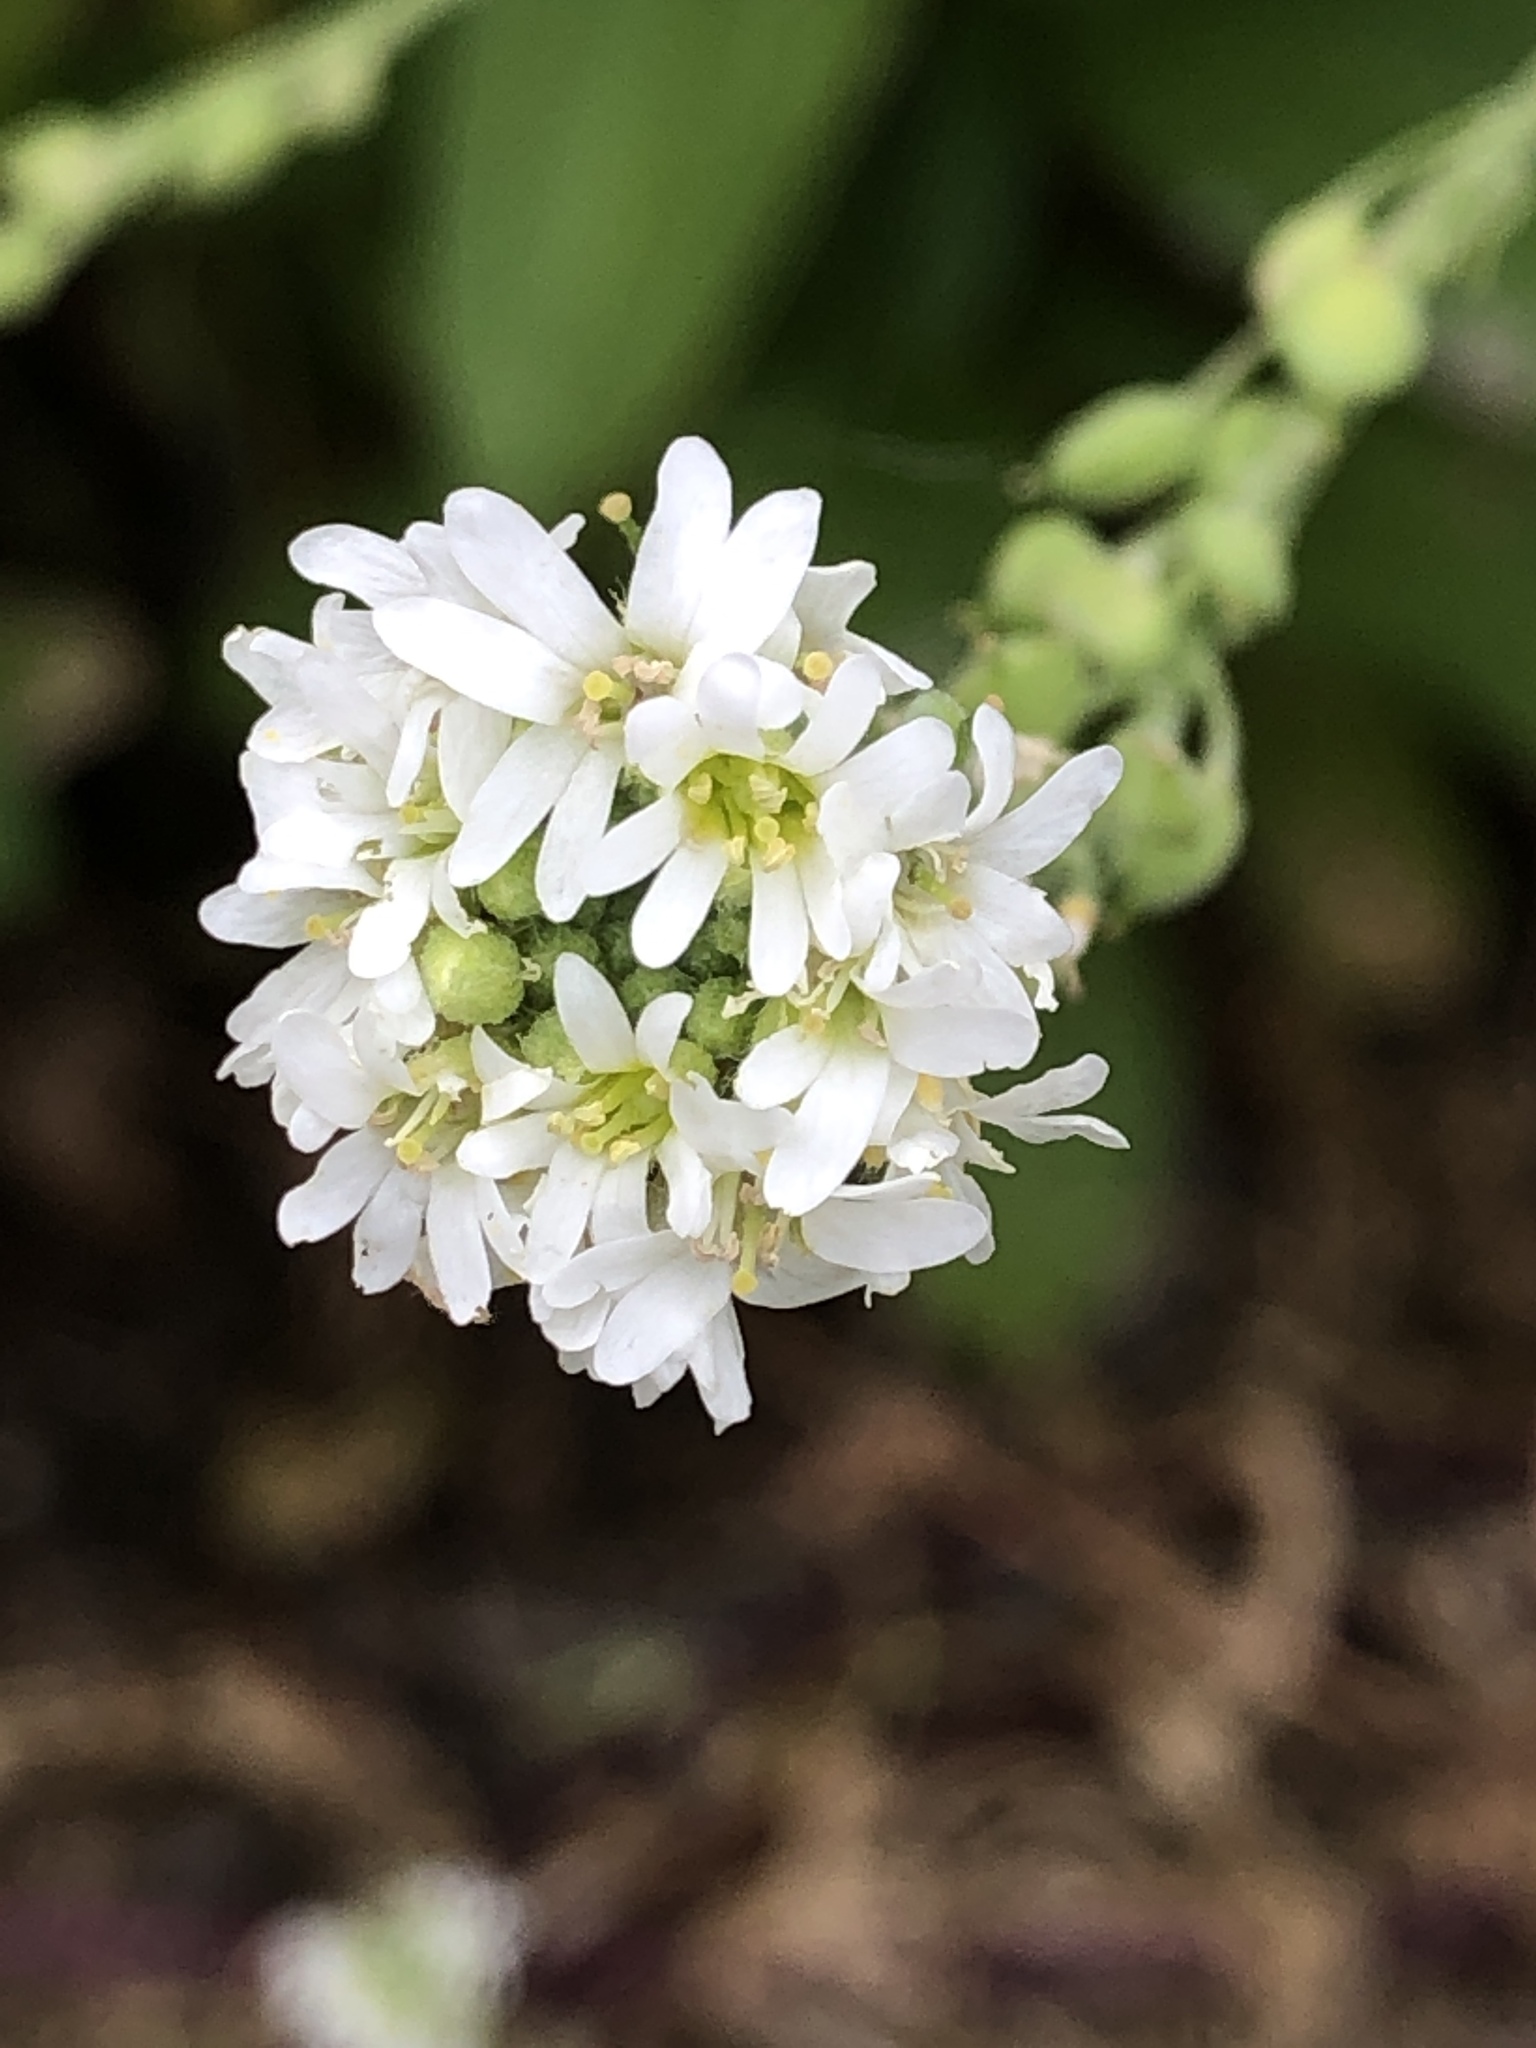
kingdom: Plantae
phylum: Tracheophyta
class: Magnoliopsida
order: Brassicales
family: Brassicaceae
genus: Berteroa
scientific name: Berteroa incana
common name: Hoary alison
